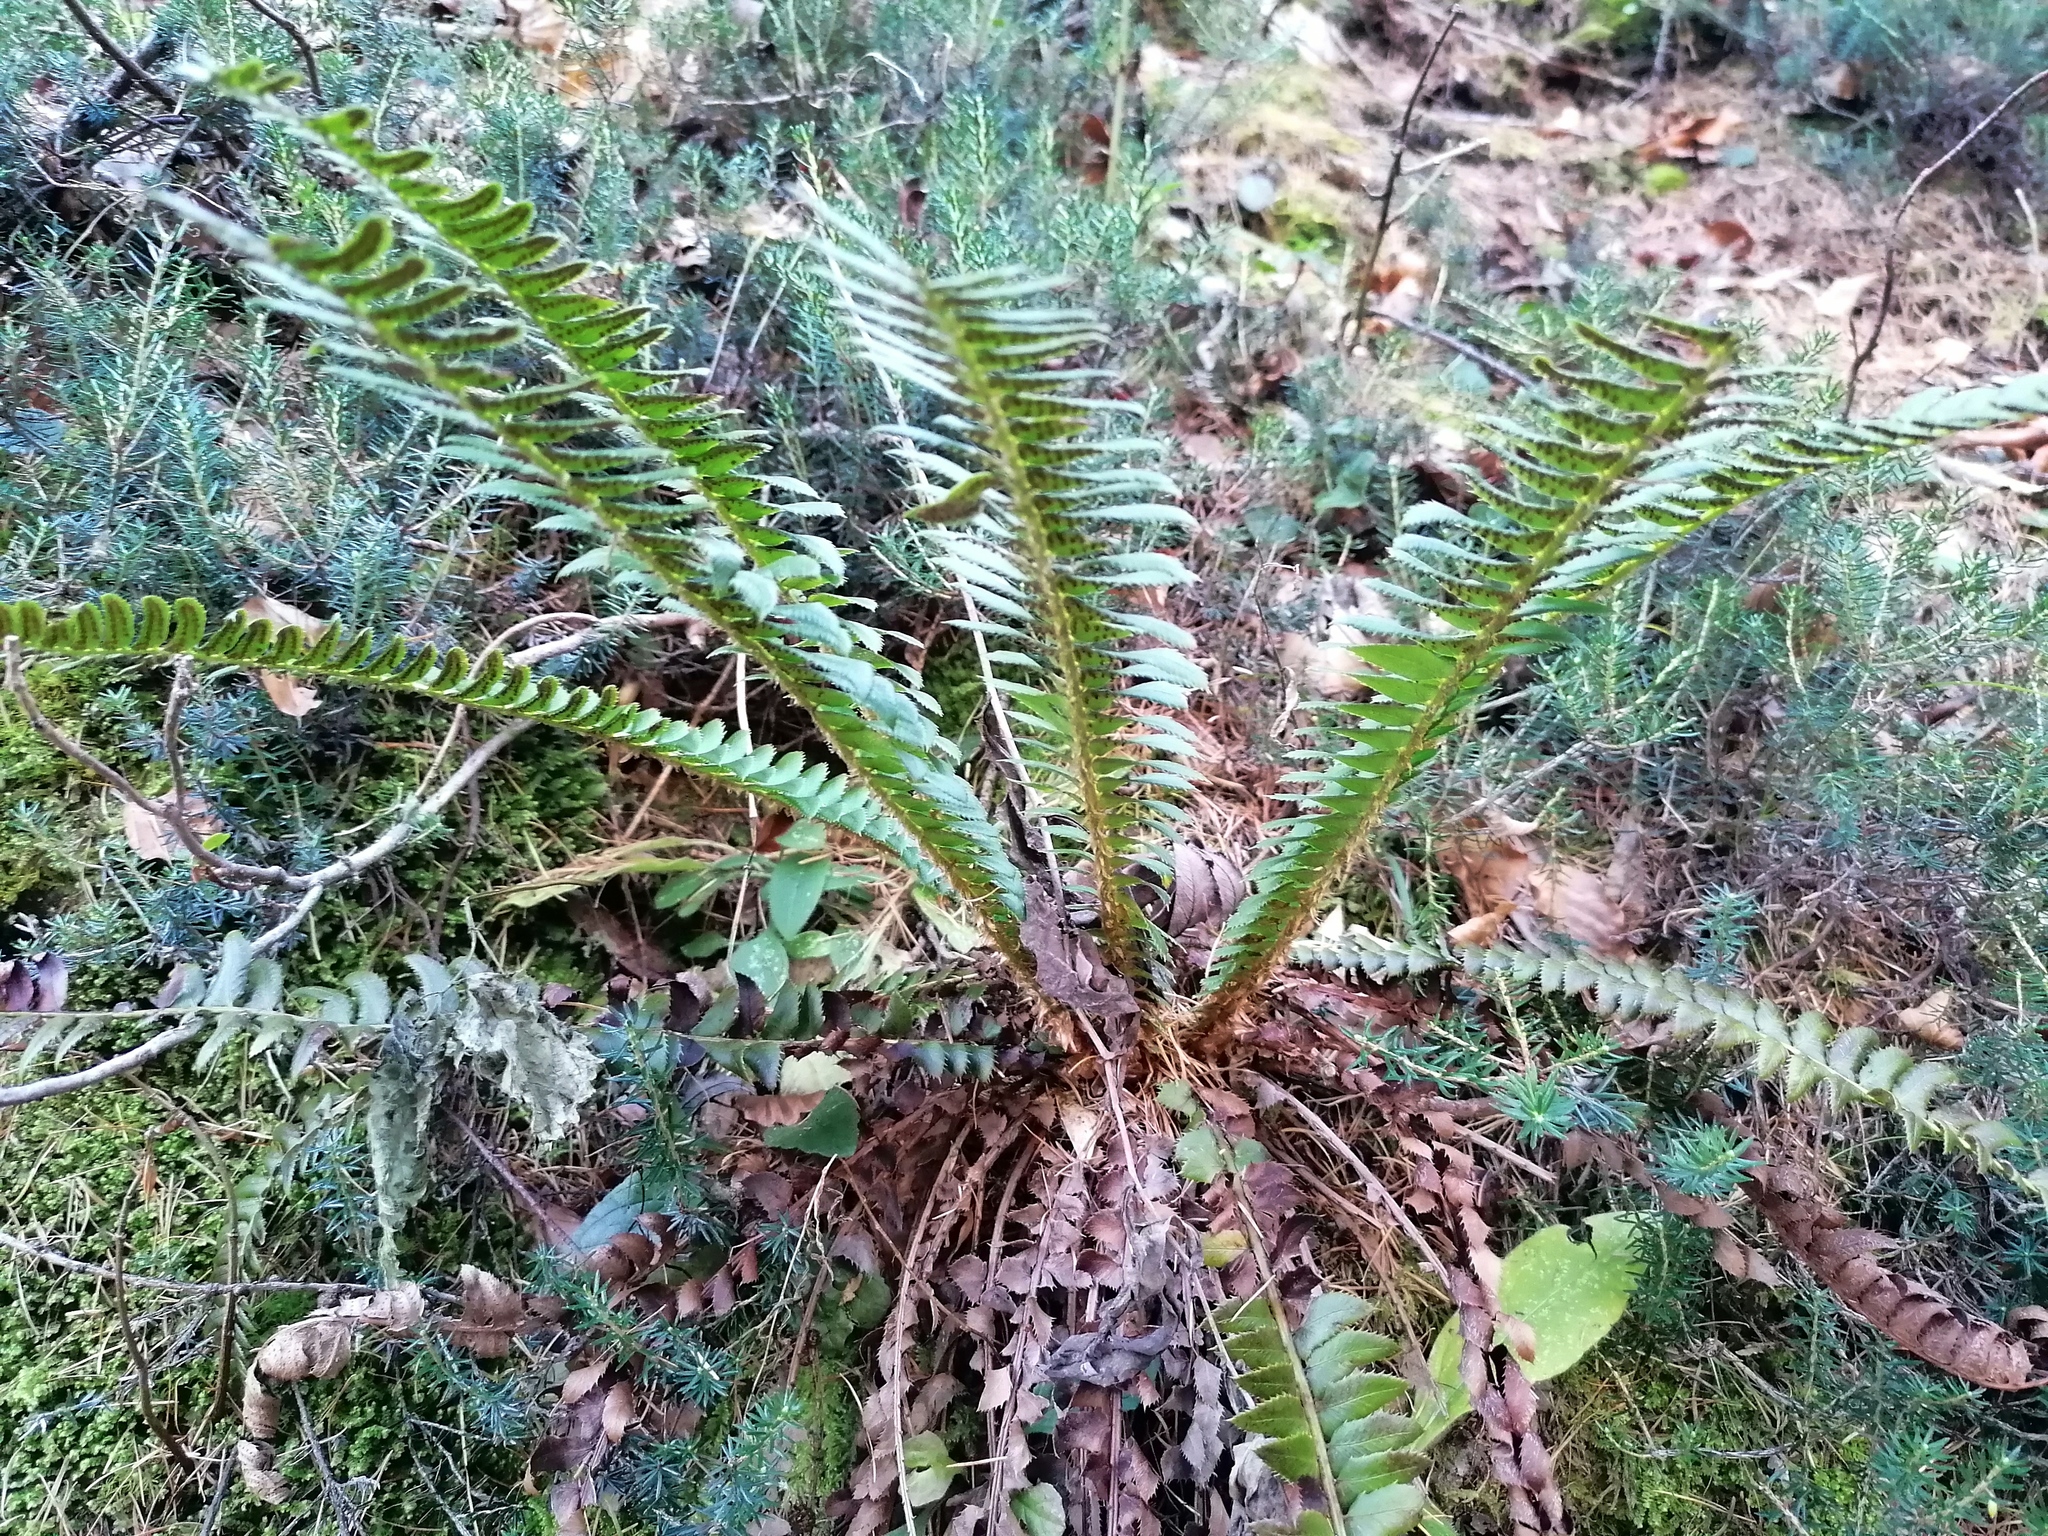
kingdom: Plantae
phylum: Tracheophyta
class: Polypodiopsida
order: Polypodiales
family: Dryopteridaceae
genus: Polystichum
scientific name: Polystichum lonchitis
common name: Holly fern
